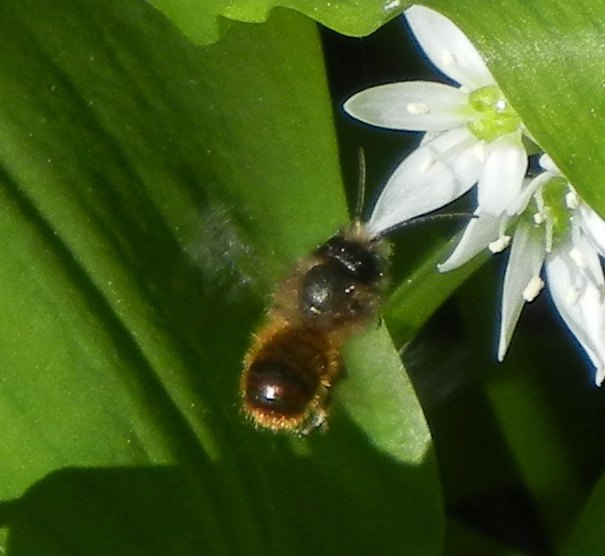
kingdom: Animalia
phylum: Arthropoda
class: Insecta
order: Hymenoptera
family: Megachilidae
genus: Osmia
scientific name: Osmia bicornis
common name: Red mason bee
